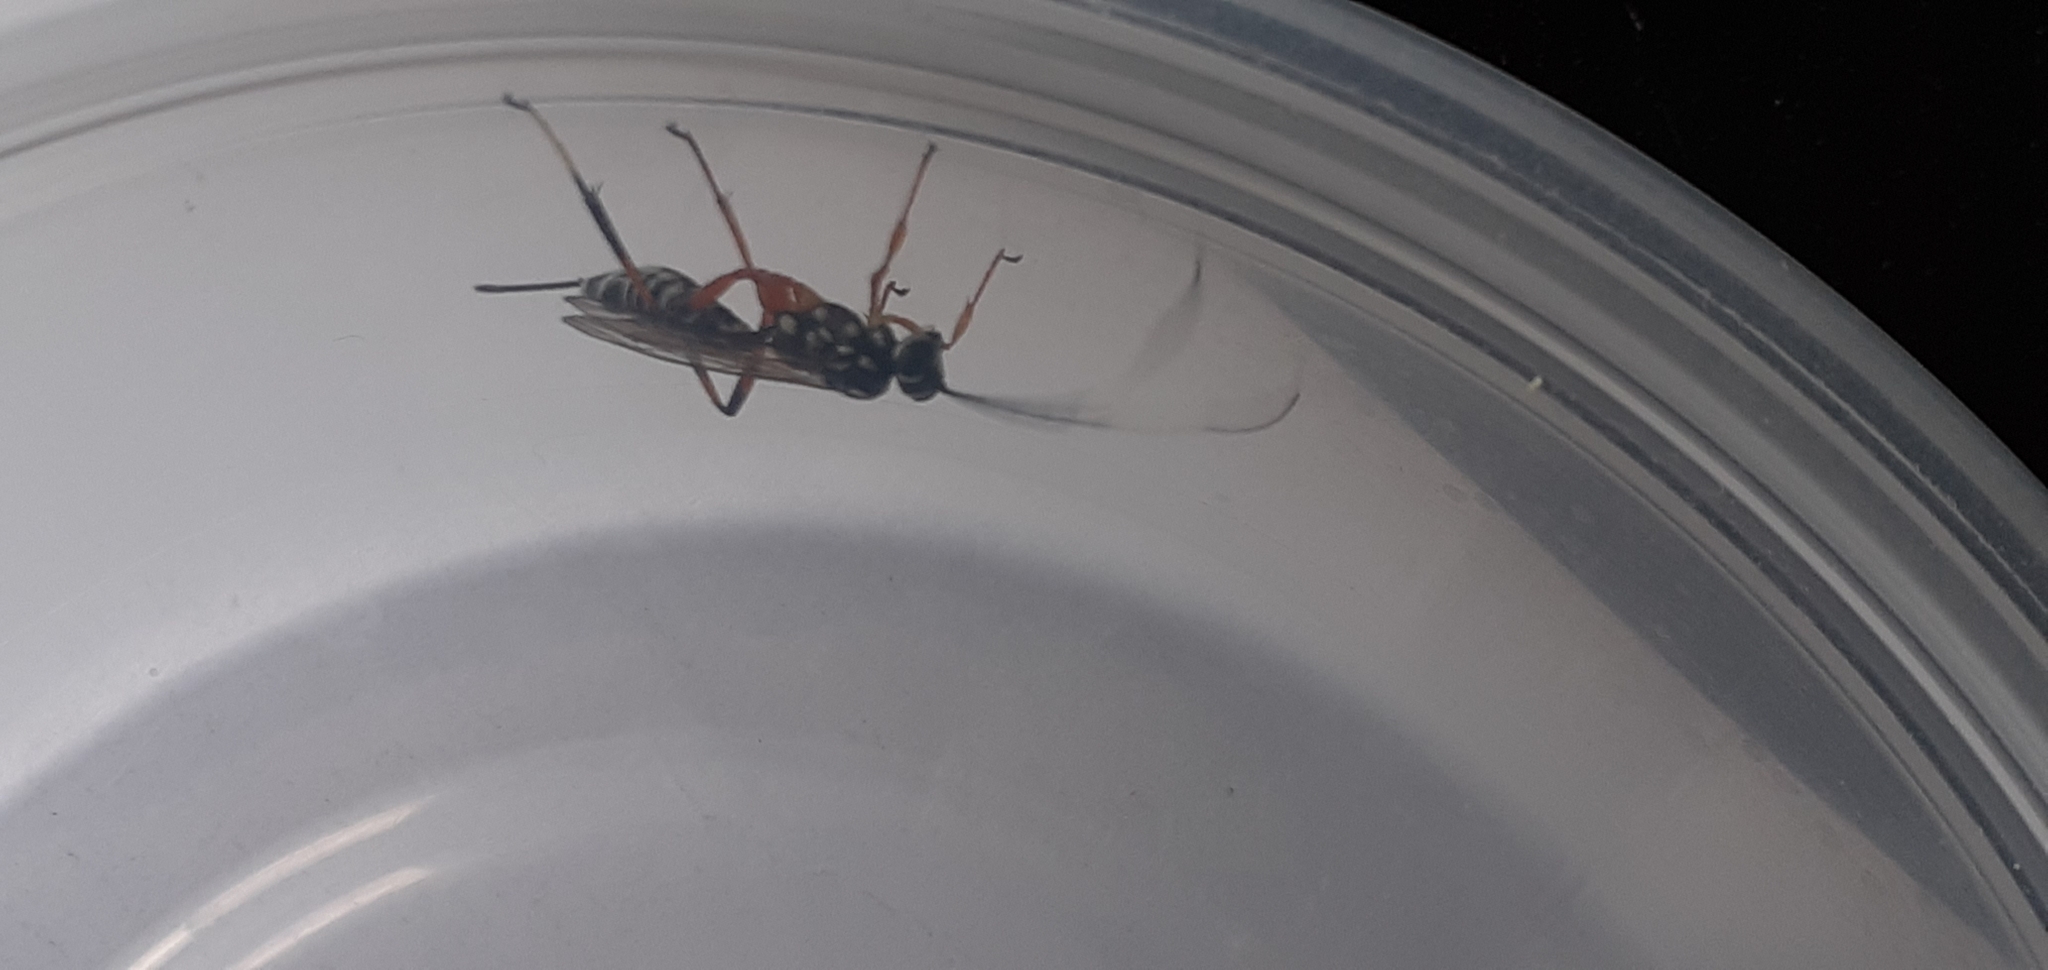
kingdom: Animalia
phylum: Arthropoda
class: Insecta
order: Hymenoptera
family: Ichneumonidae
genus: Xanthocryptus
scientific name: Xanthocryptus novozealandicus
